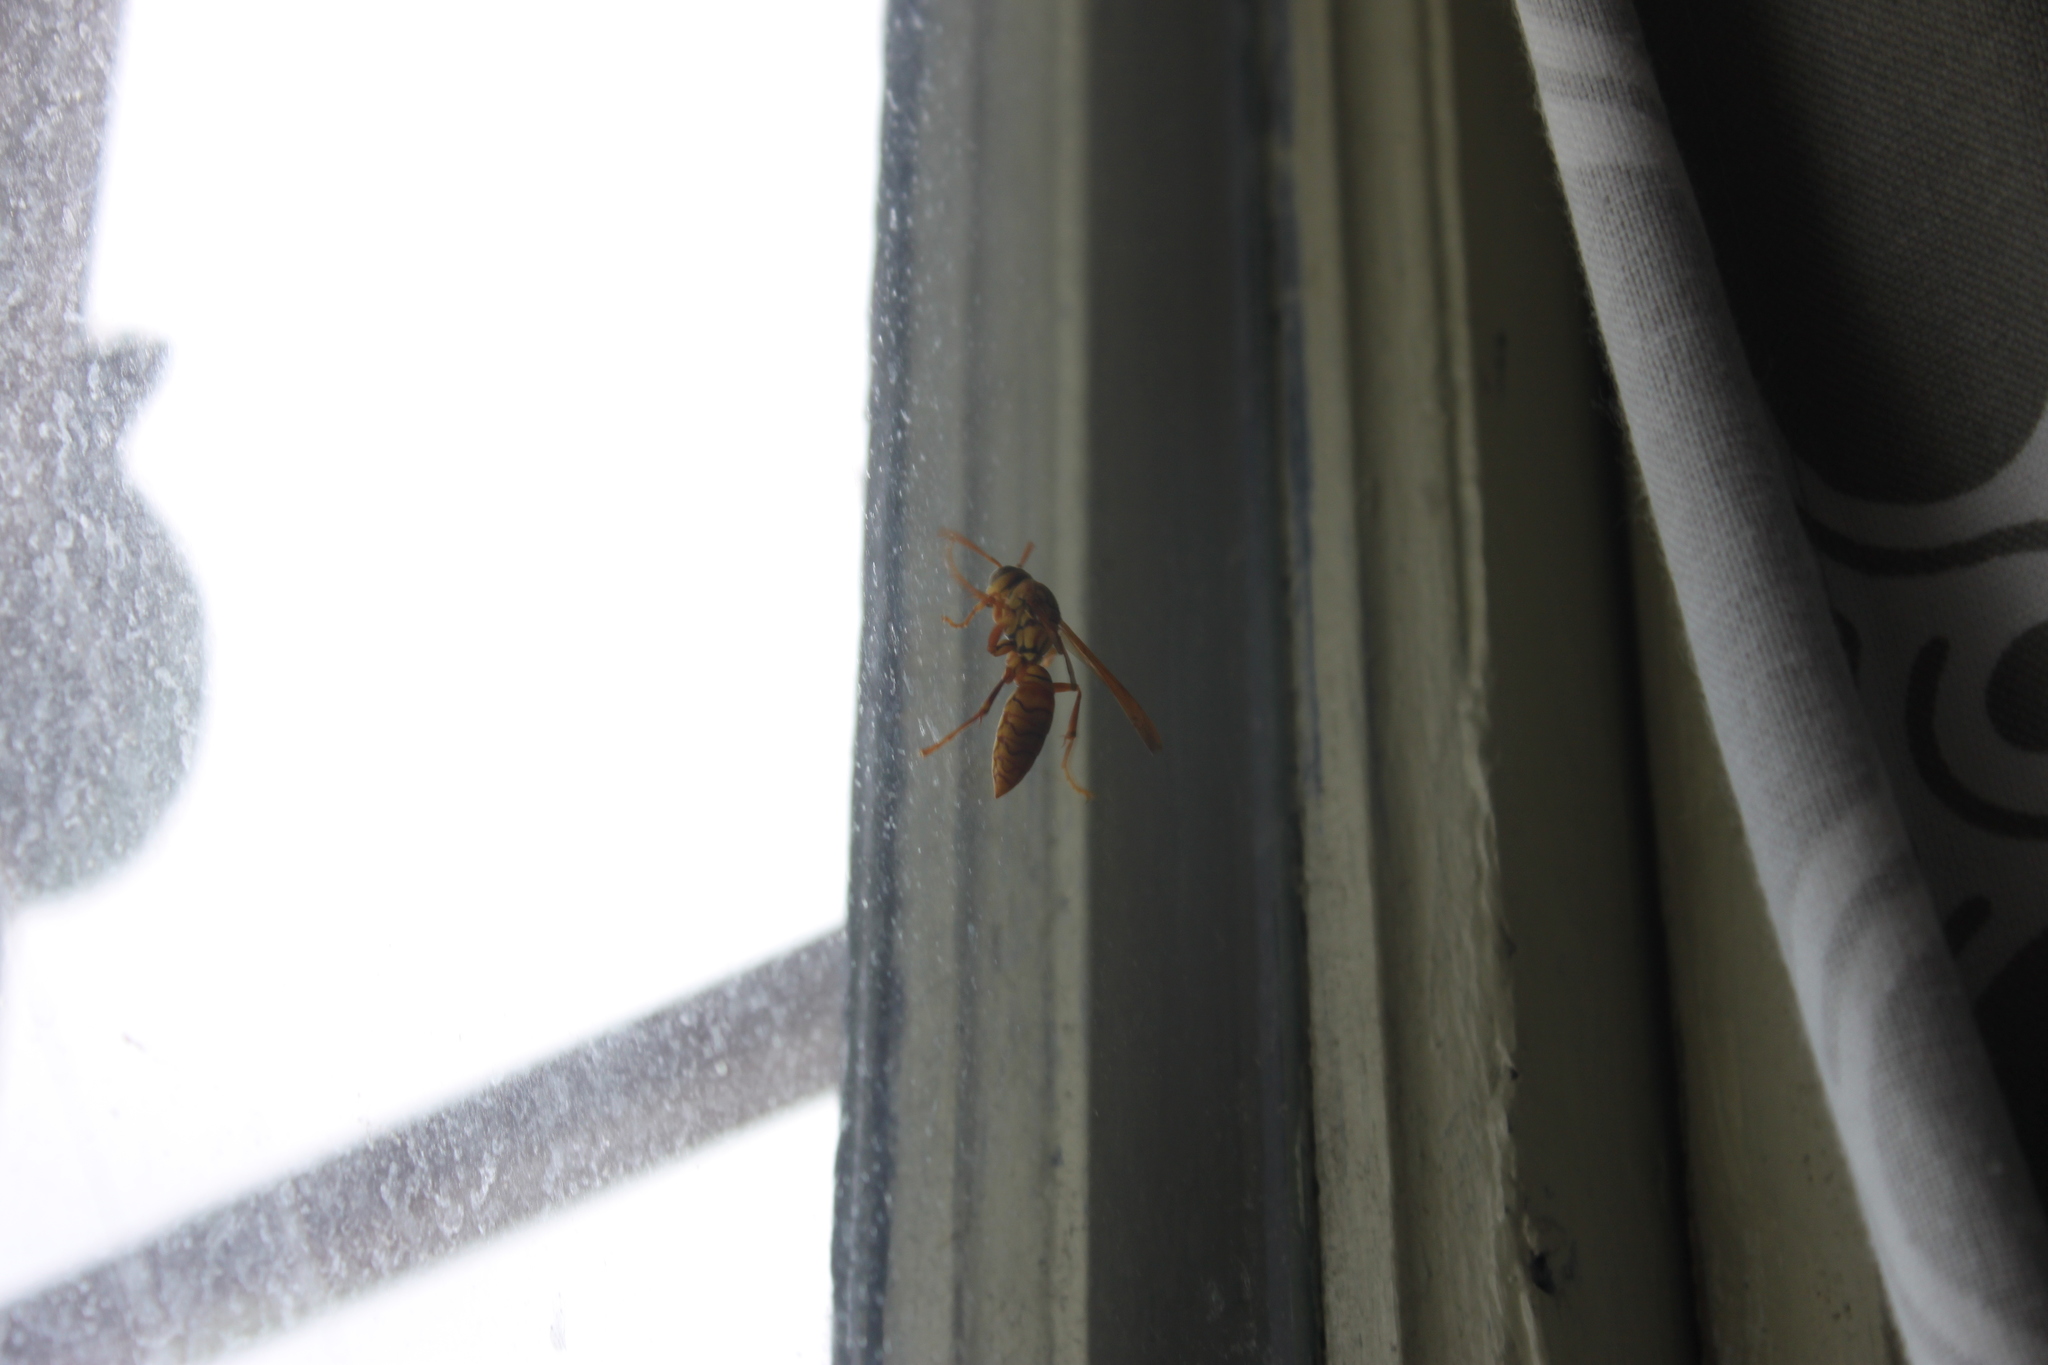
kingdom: Animalia
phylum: Arthropoda
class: Insecta
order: Hymenoptera
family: Eumenidae
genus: Polistes
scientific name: Polistes olivaceus
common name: Paper wasp
